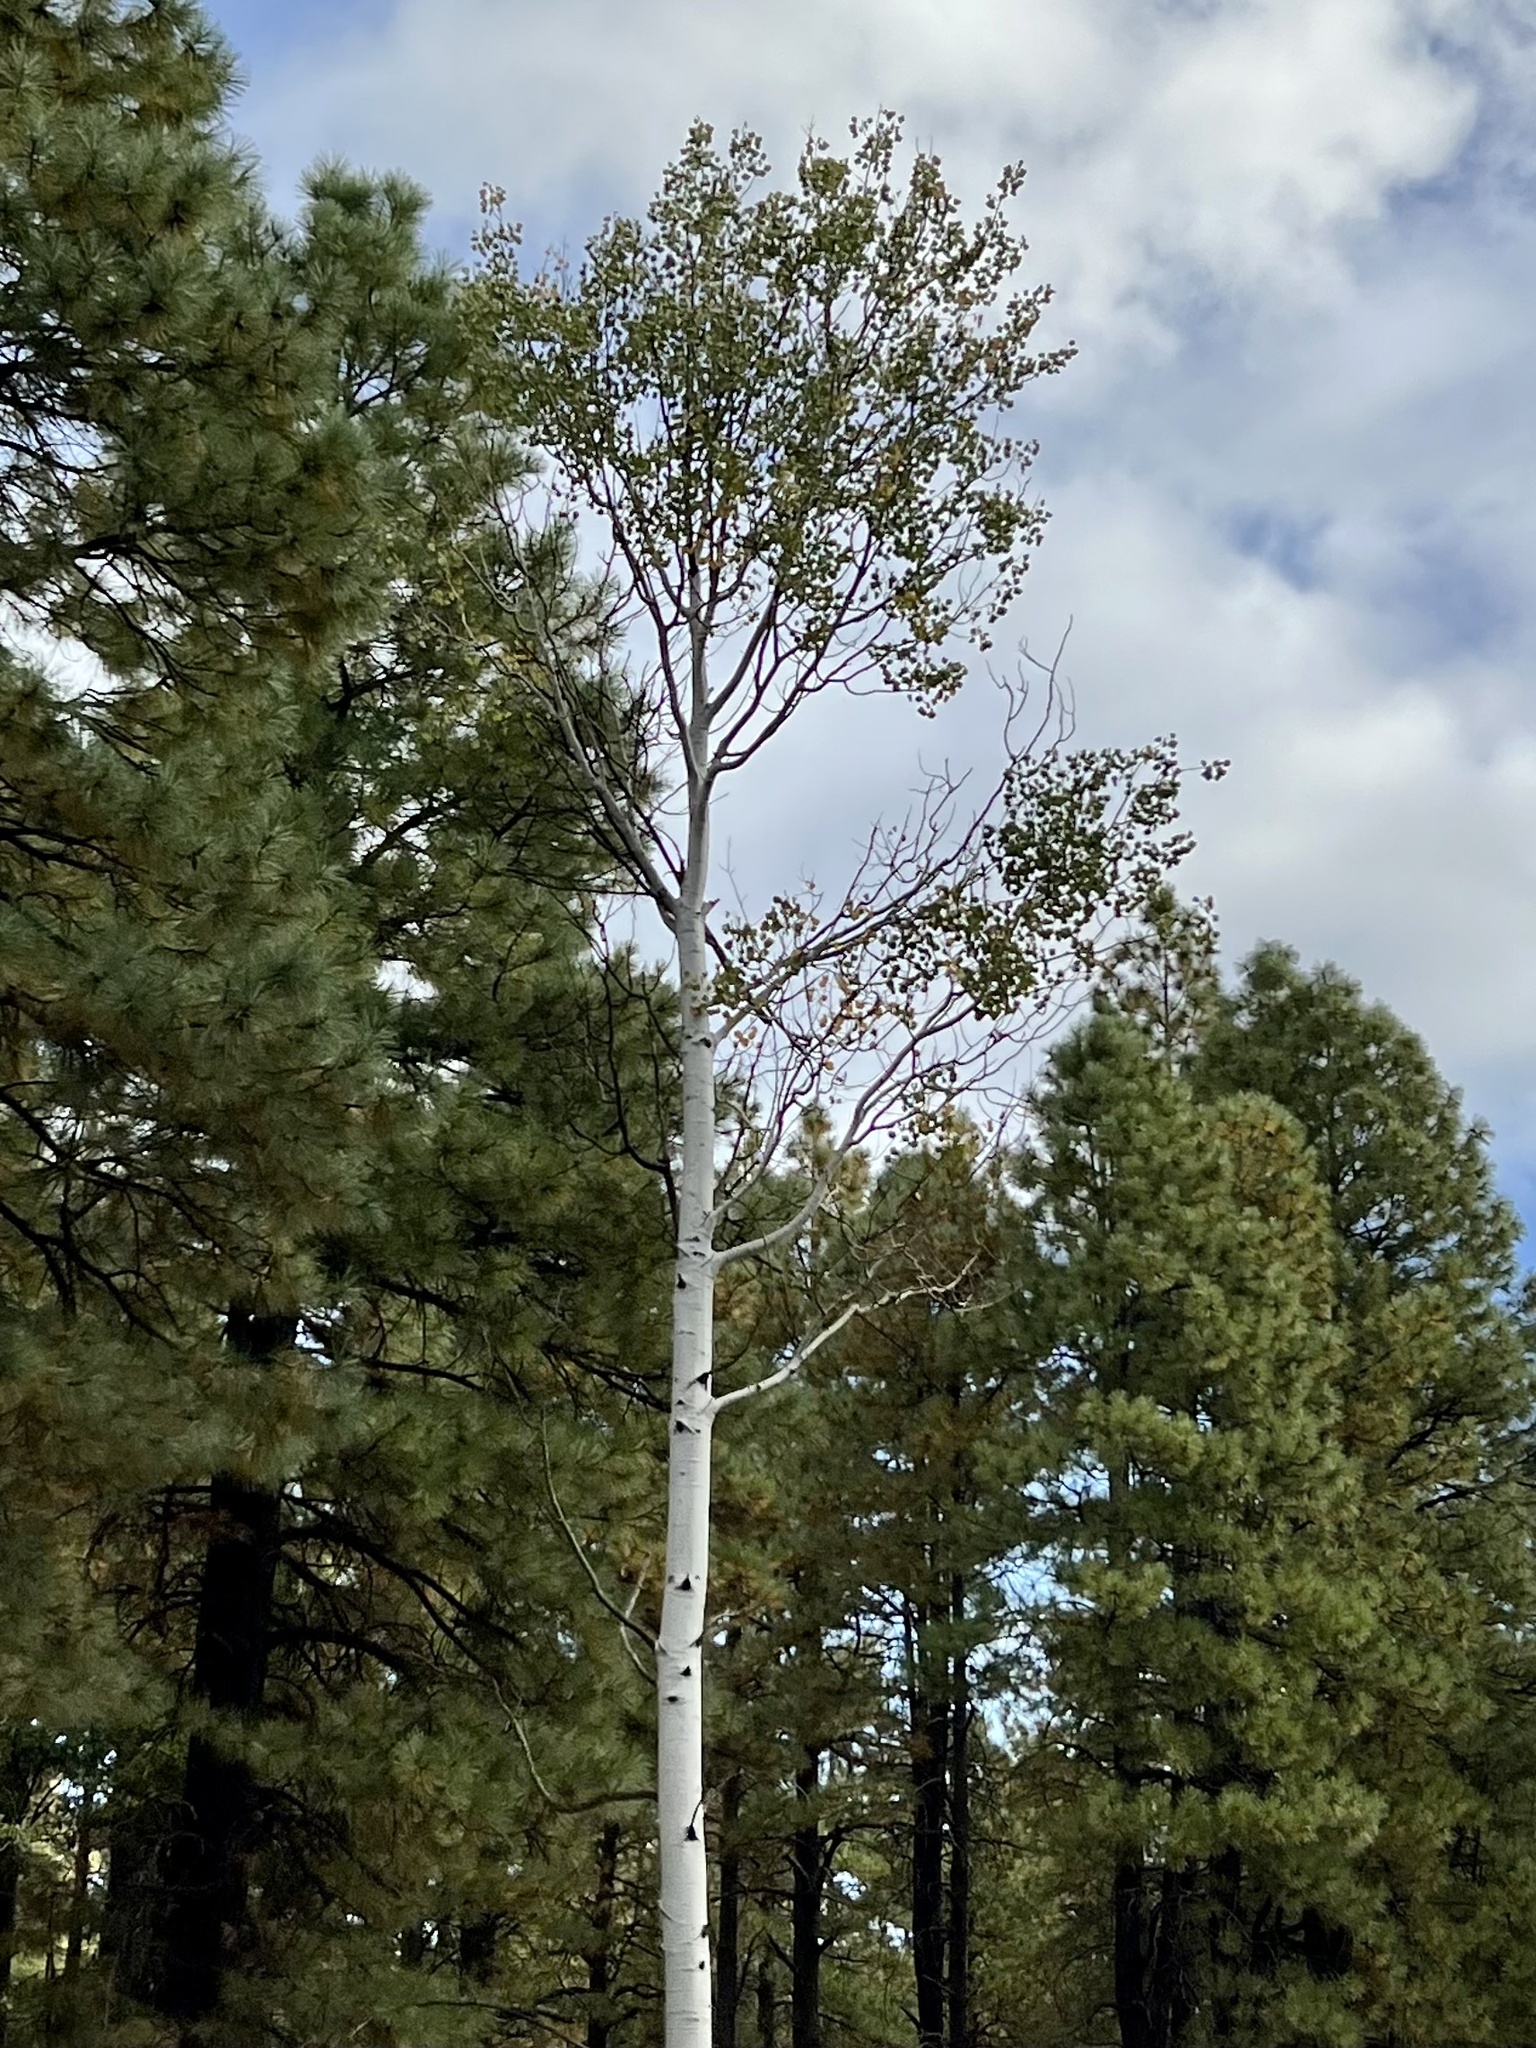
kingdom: Plantae
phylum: Tracheophyta
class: Magnoliopsida
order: Malpighiales
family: Salicaceae
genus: Populus
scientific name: Populus tremuloides
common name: Quaking aspen
